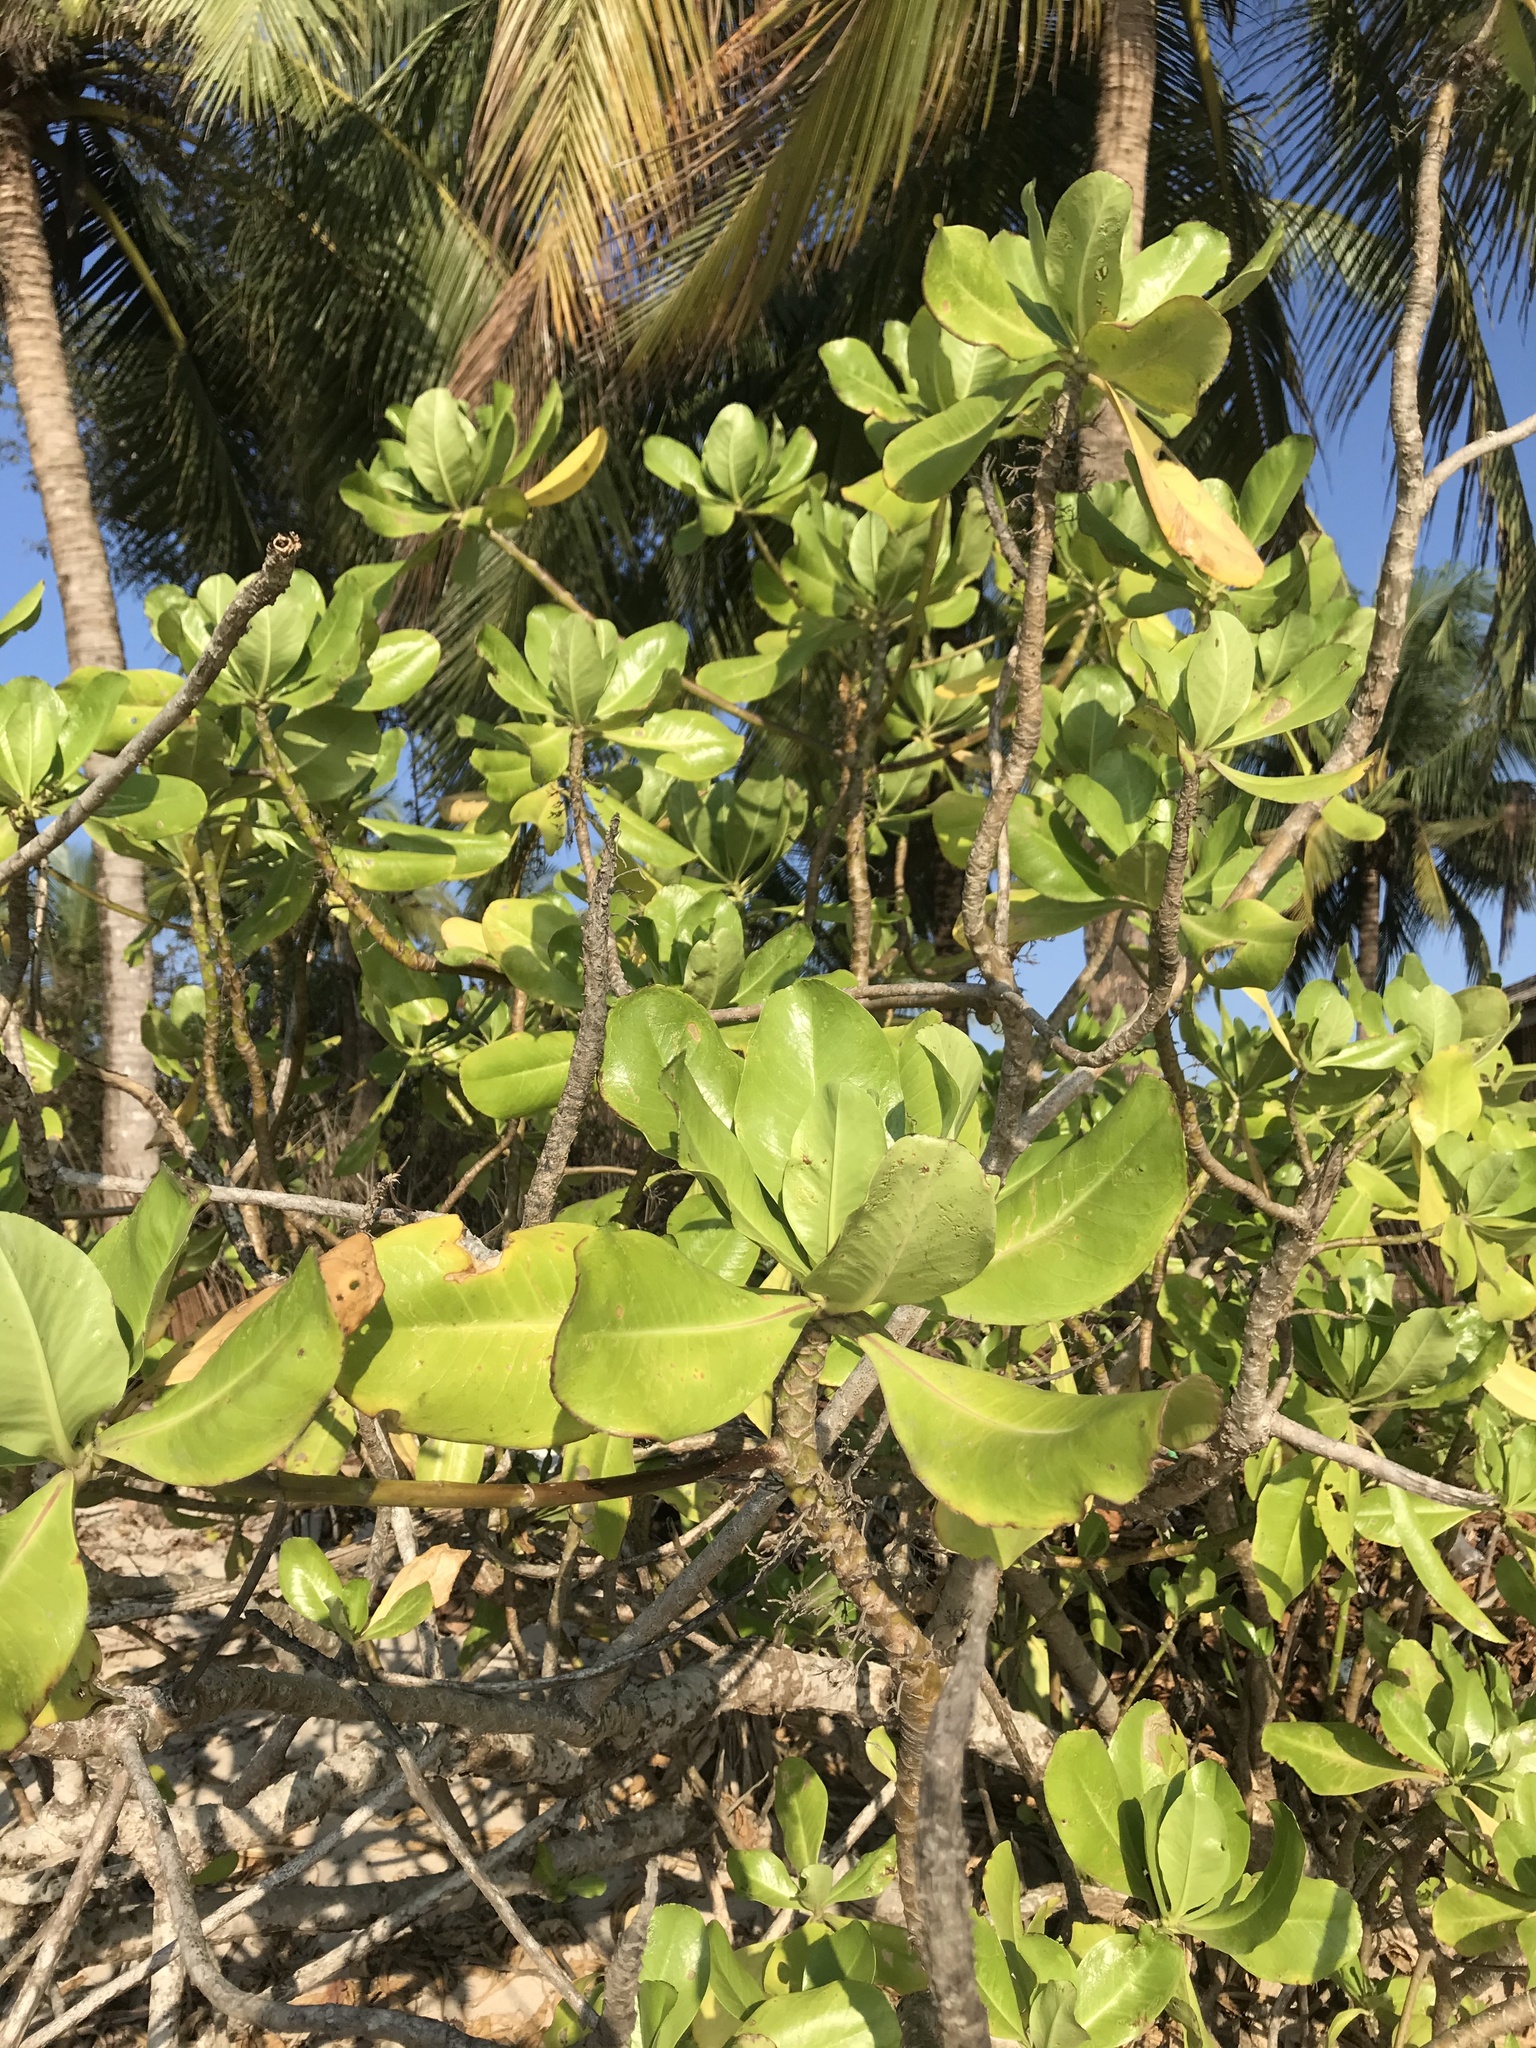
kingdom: Plantae
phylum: Tracheophyta
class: Magnoliopsida
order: Myrtales
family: Combretaceae
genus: Terminalia
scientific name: Terminalia catappa
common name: Tropical almond
